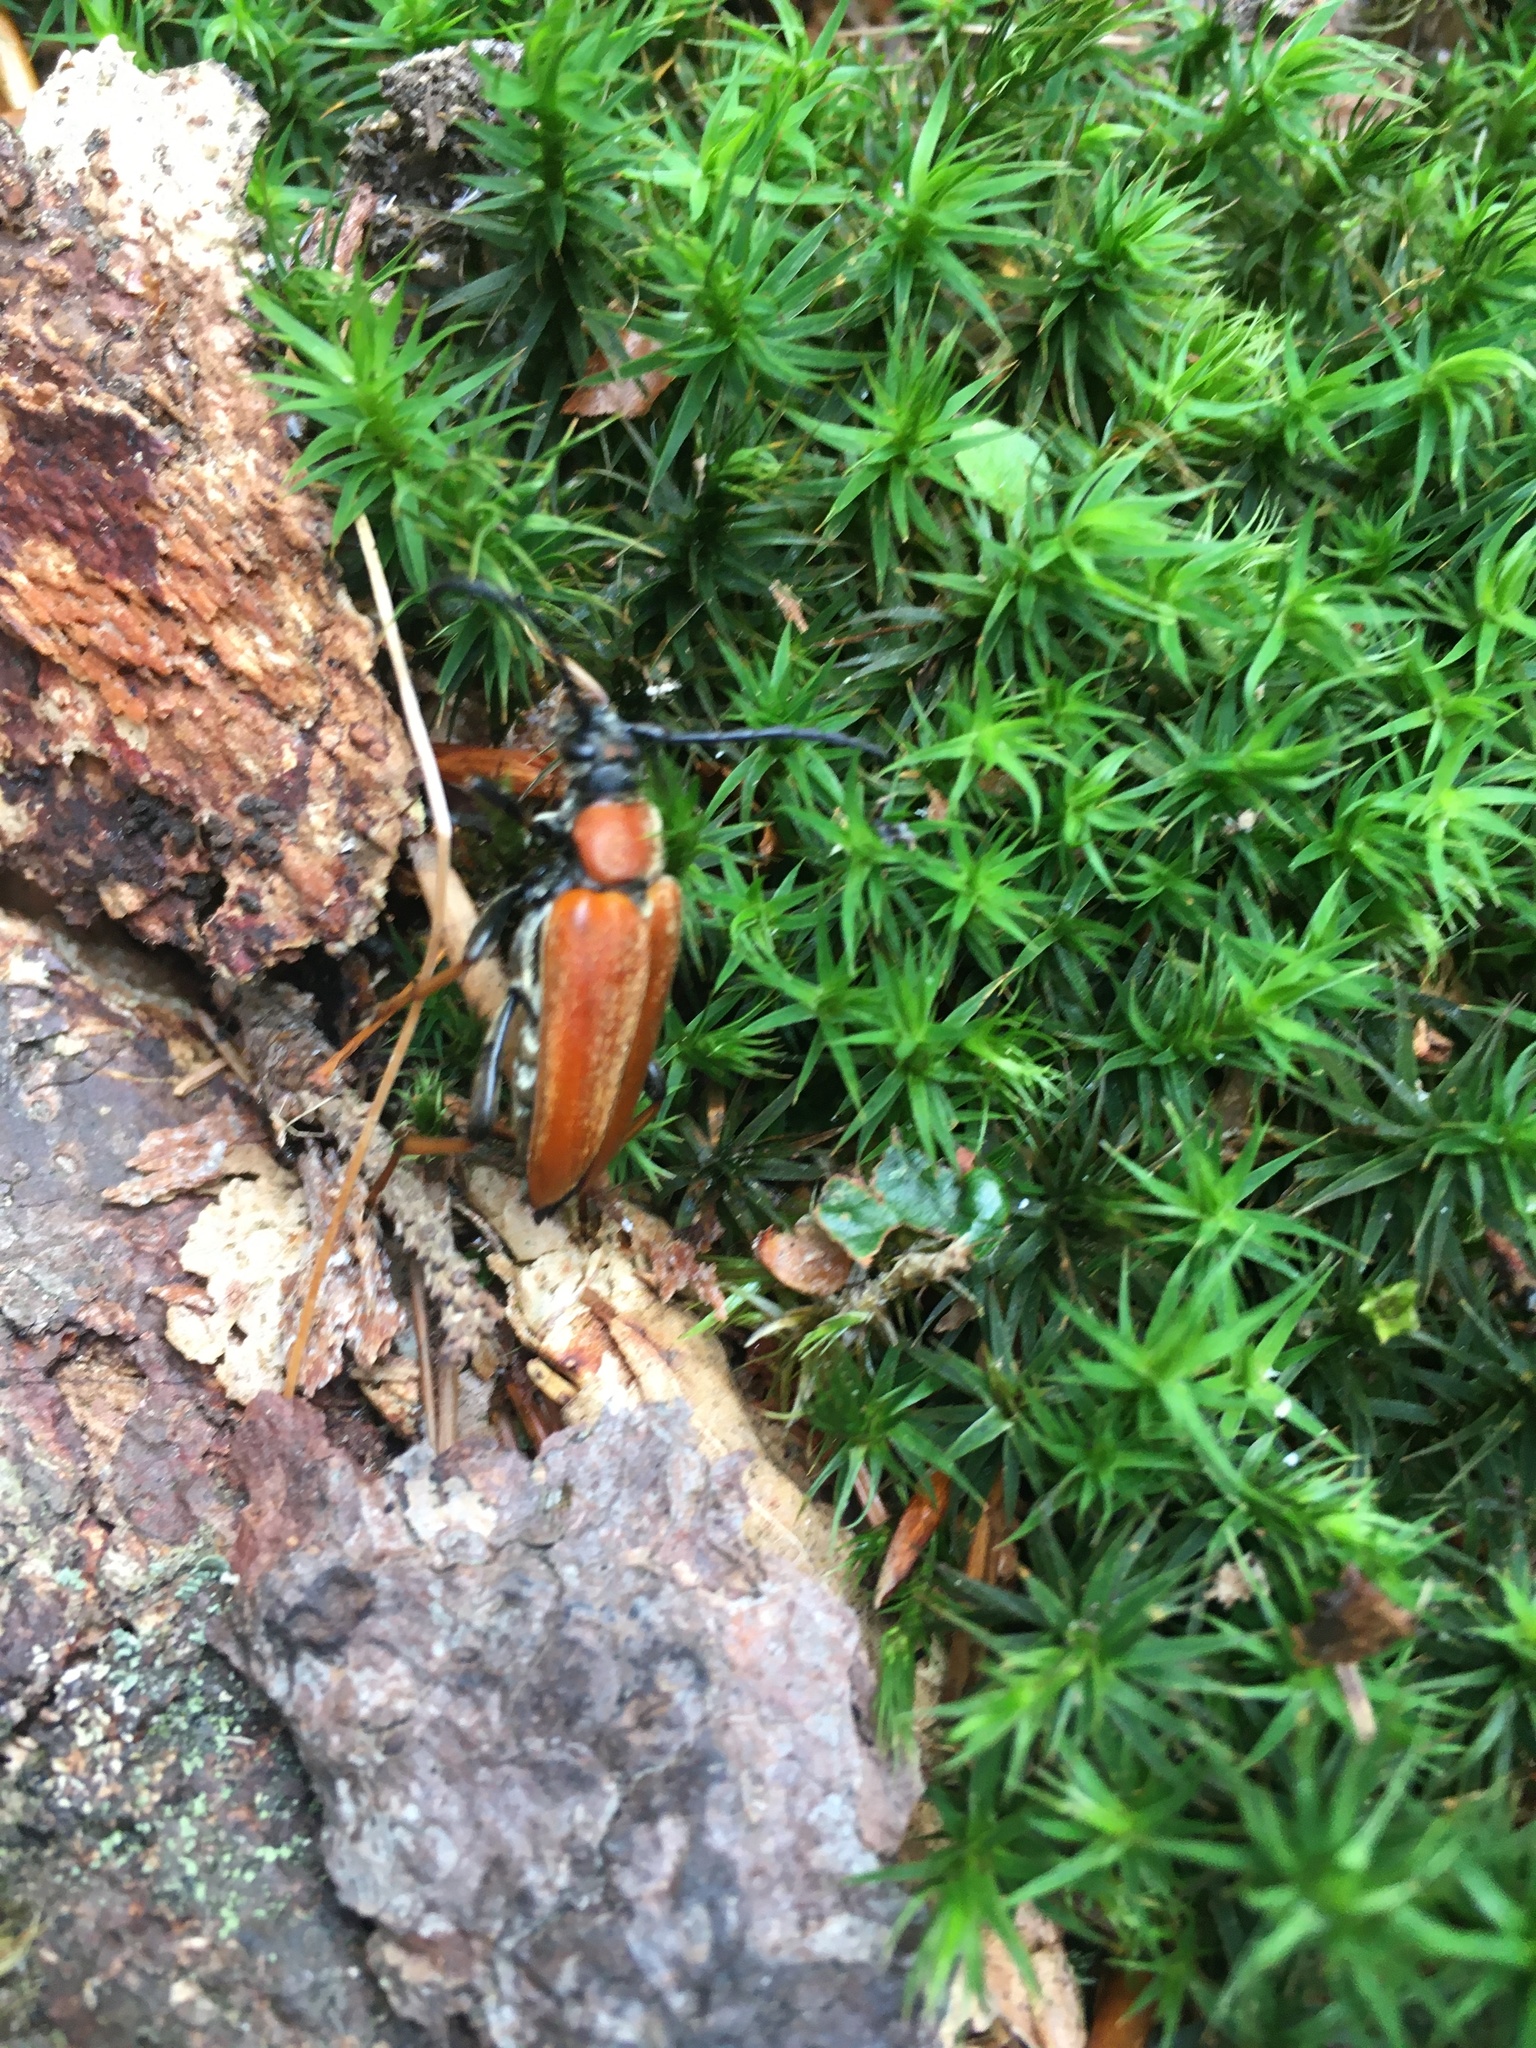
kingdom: Animalia
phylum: Arthropoda
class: Insecta
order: Coleoptera
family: Cerambycidae
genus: Stictoleptura
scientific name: Stictoleptura rubra
